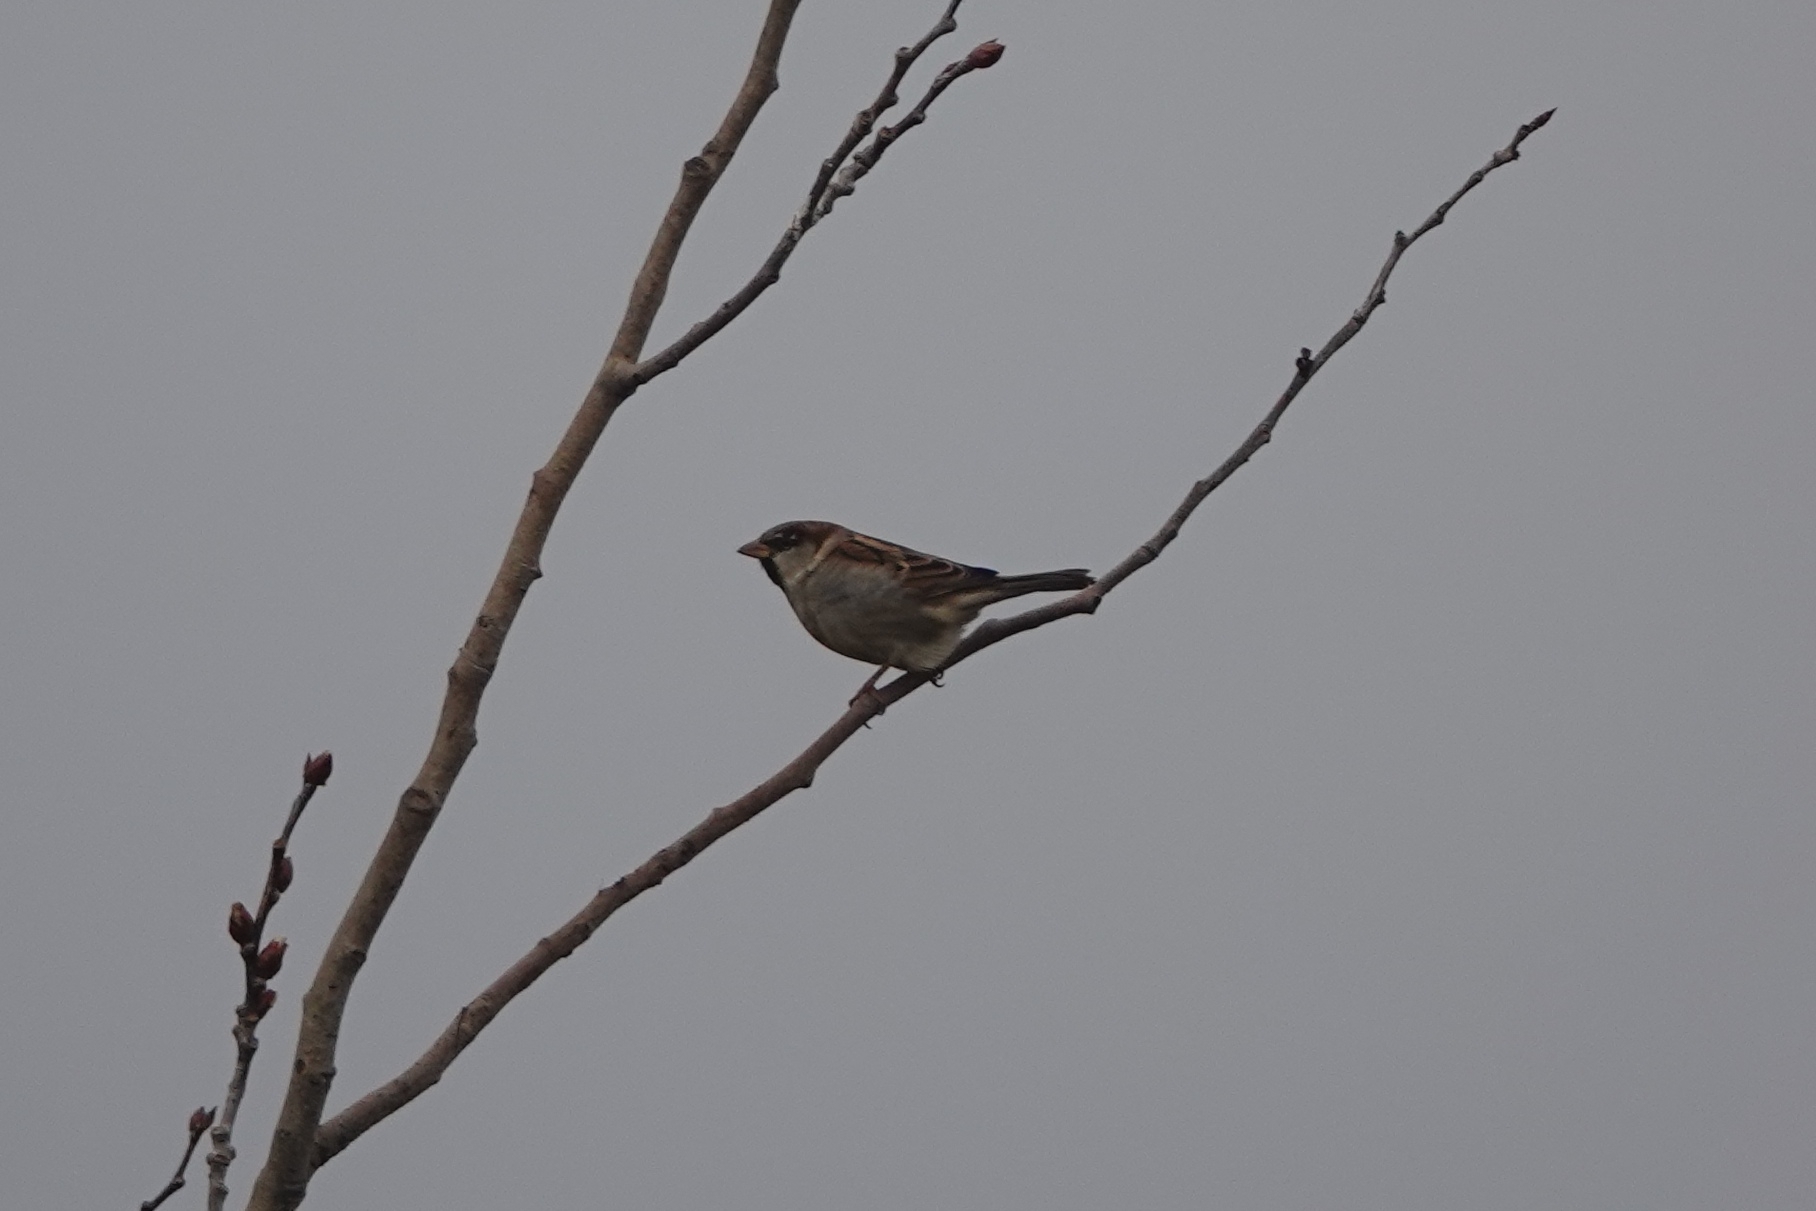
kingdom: Animalia
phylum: Chordata
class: Aves
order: Passeriformes
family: Passeridae
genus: Passer
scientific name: Passer domesticus
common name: House sparrow
